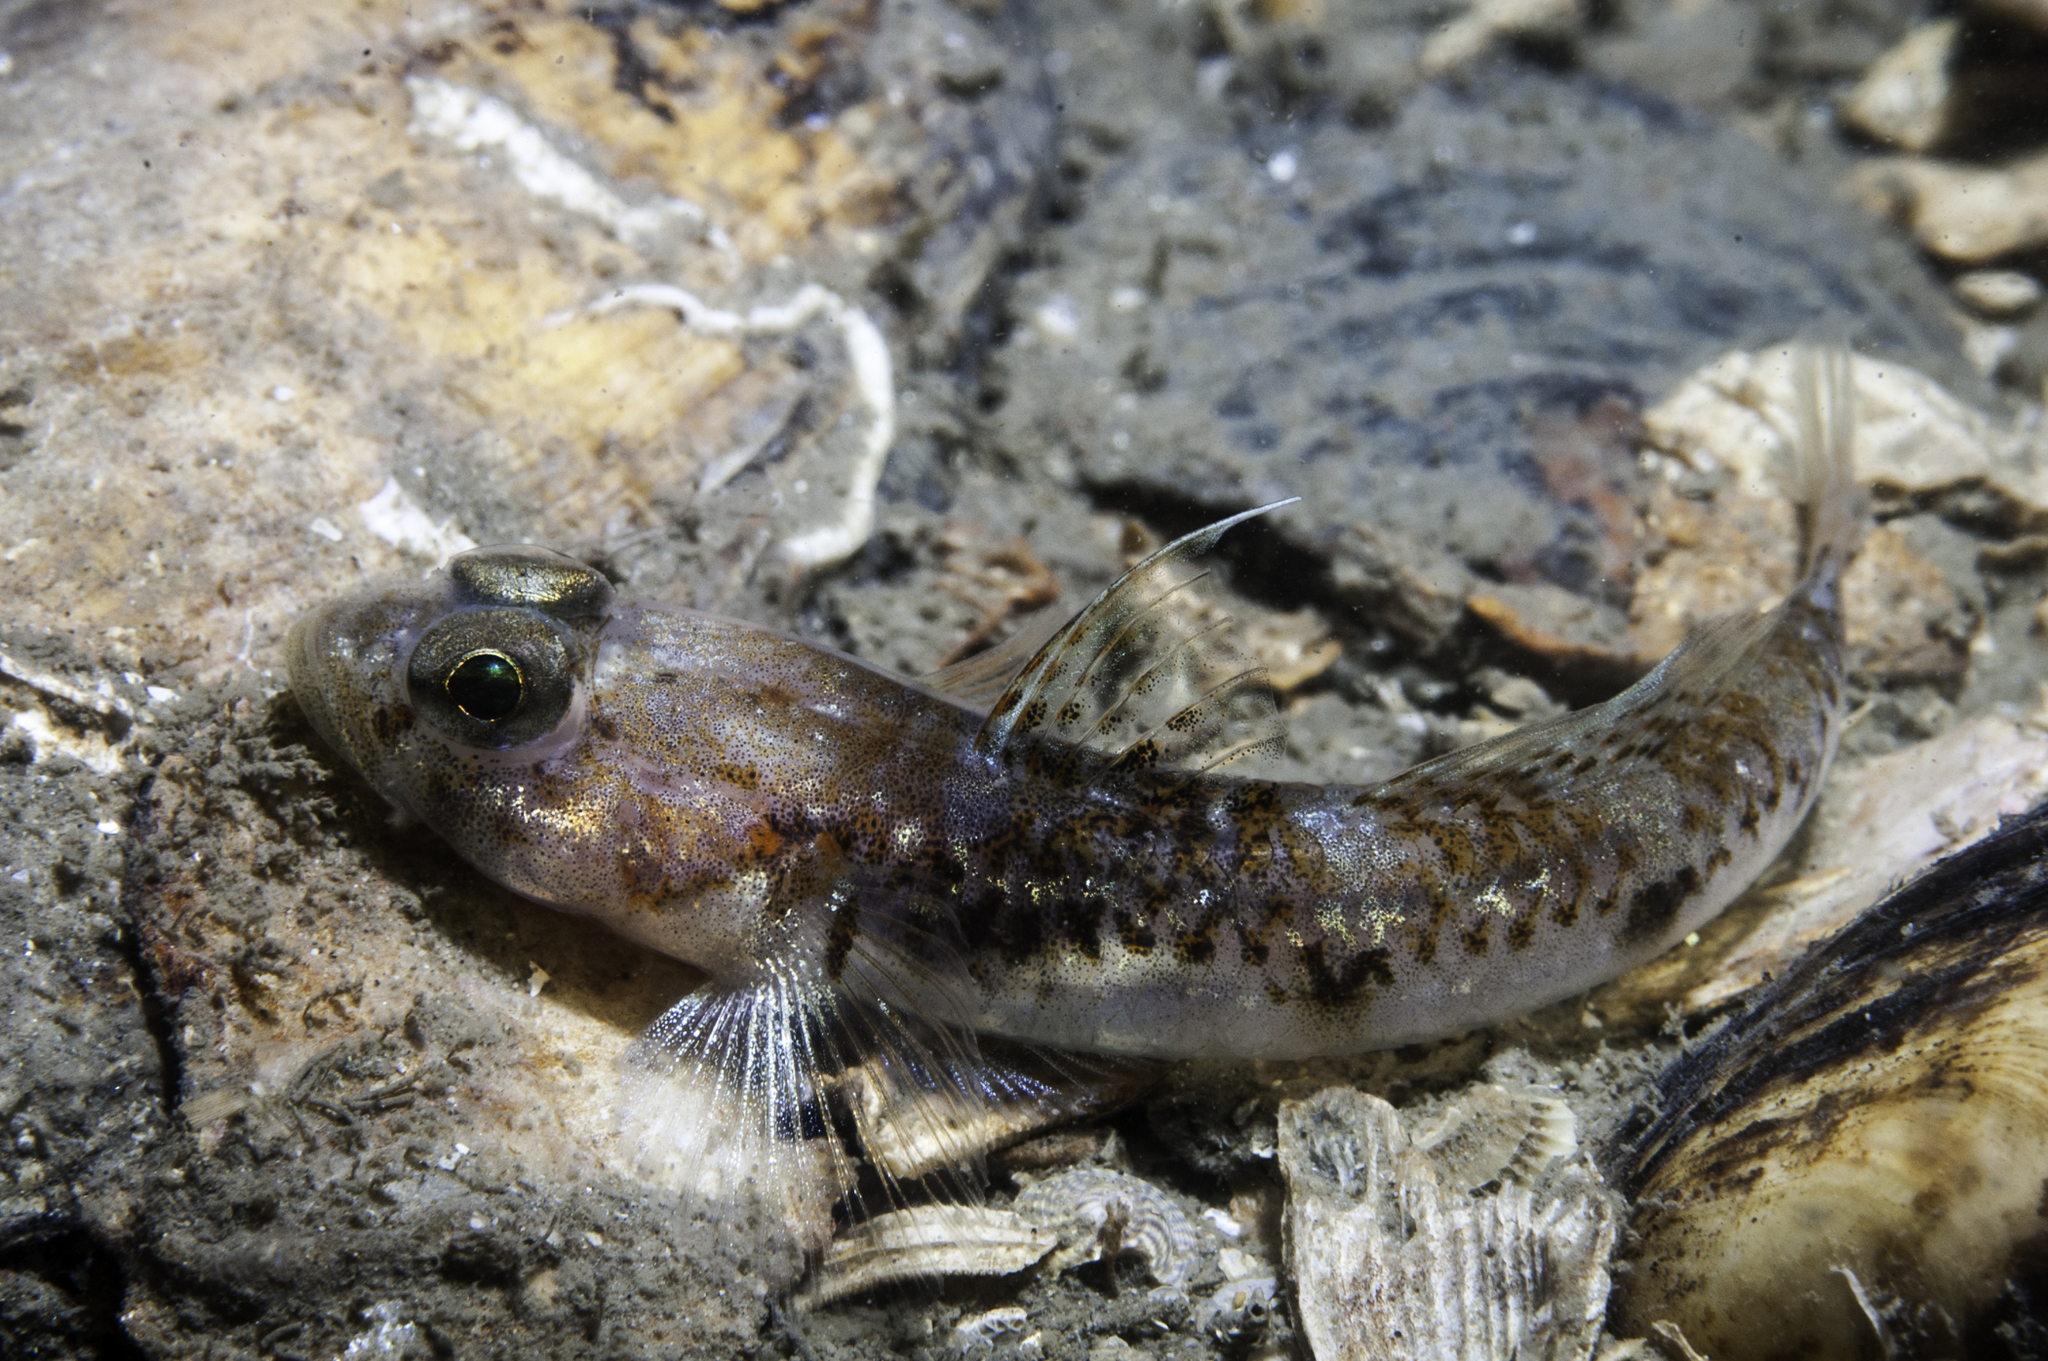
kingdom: Animalia
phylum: Chordata
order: Perciformes
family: Gobiidae
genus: Buenia
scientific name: Buenia jeffreysii
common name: Jeffrey's goby
